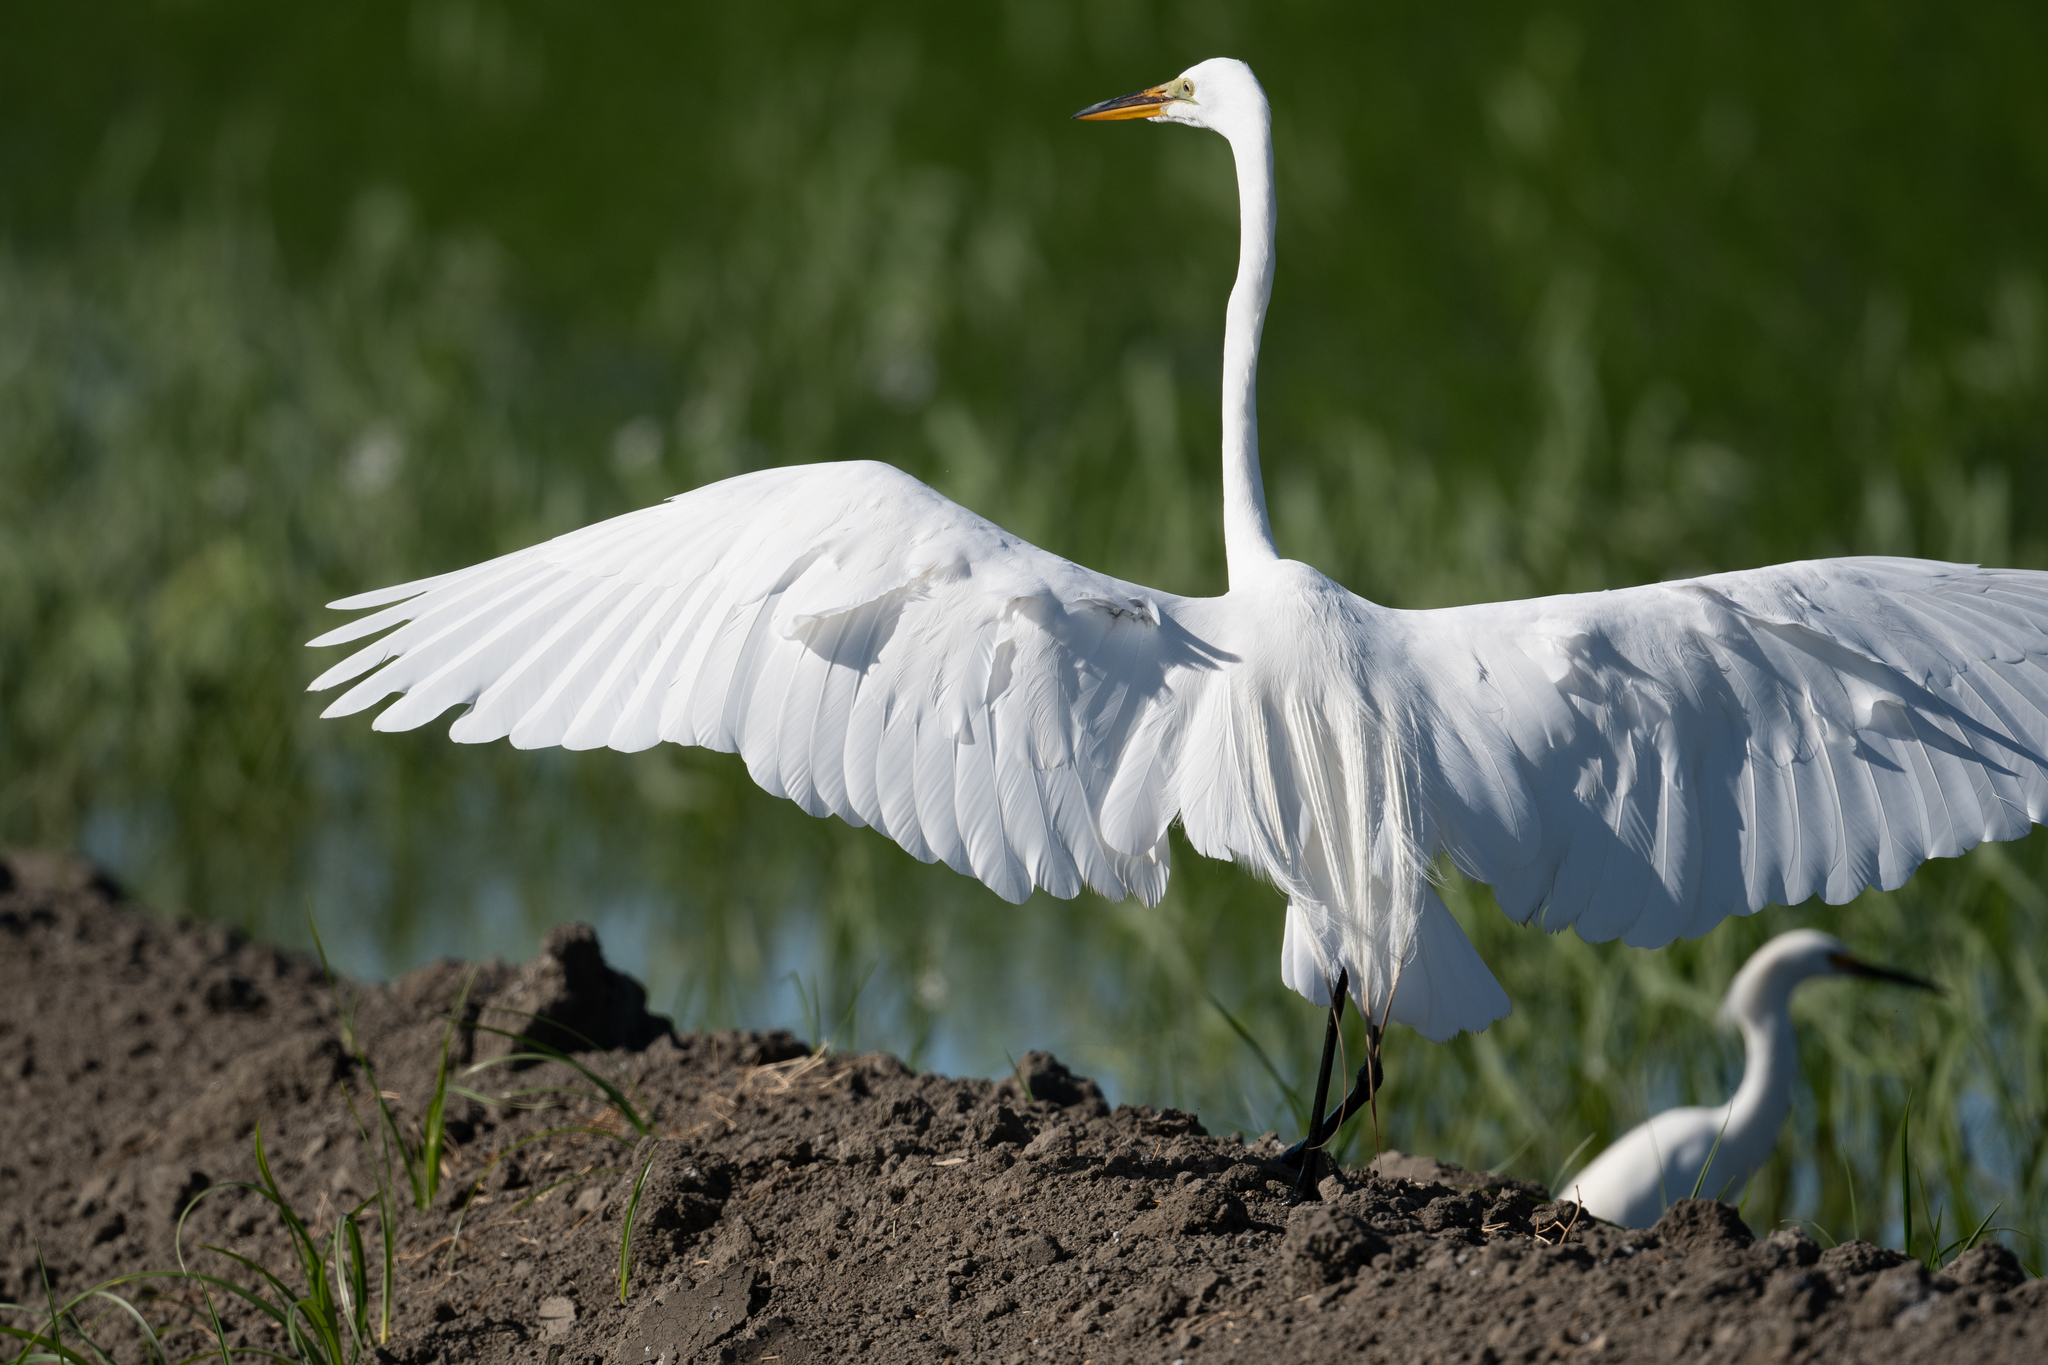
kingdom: Animalia
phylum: Chordata
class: Aves
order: Pelecaniformes
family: Ardeidae
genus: Ardea
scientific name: Ardea alba
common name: Great egret
